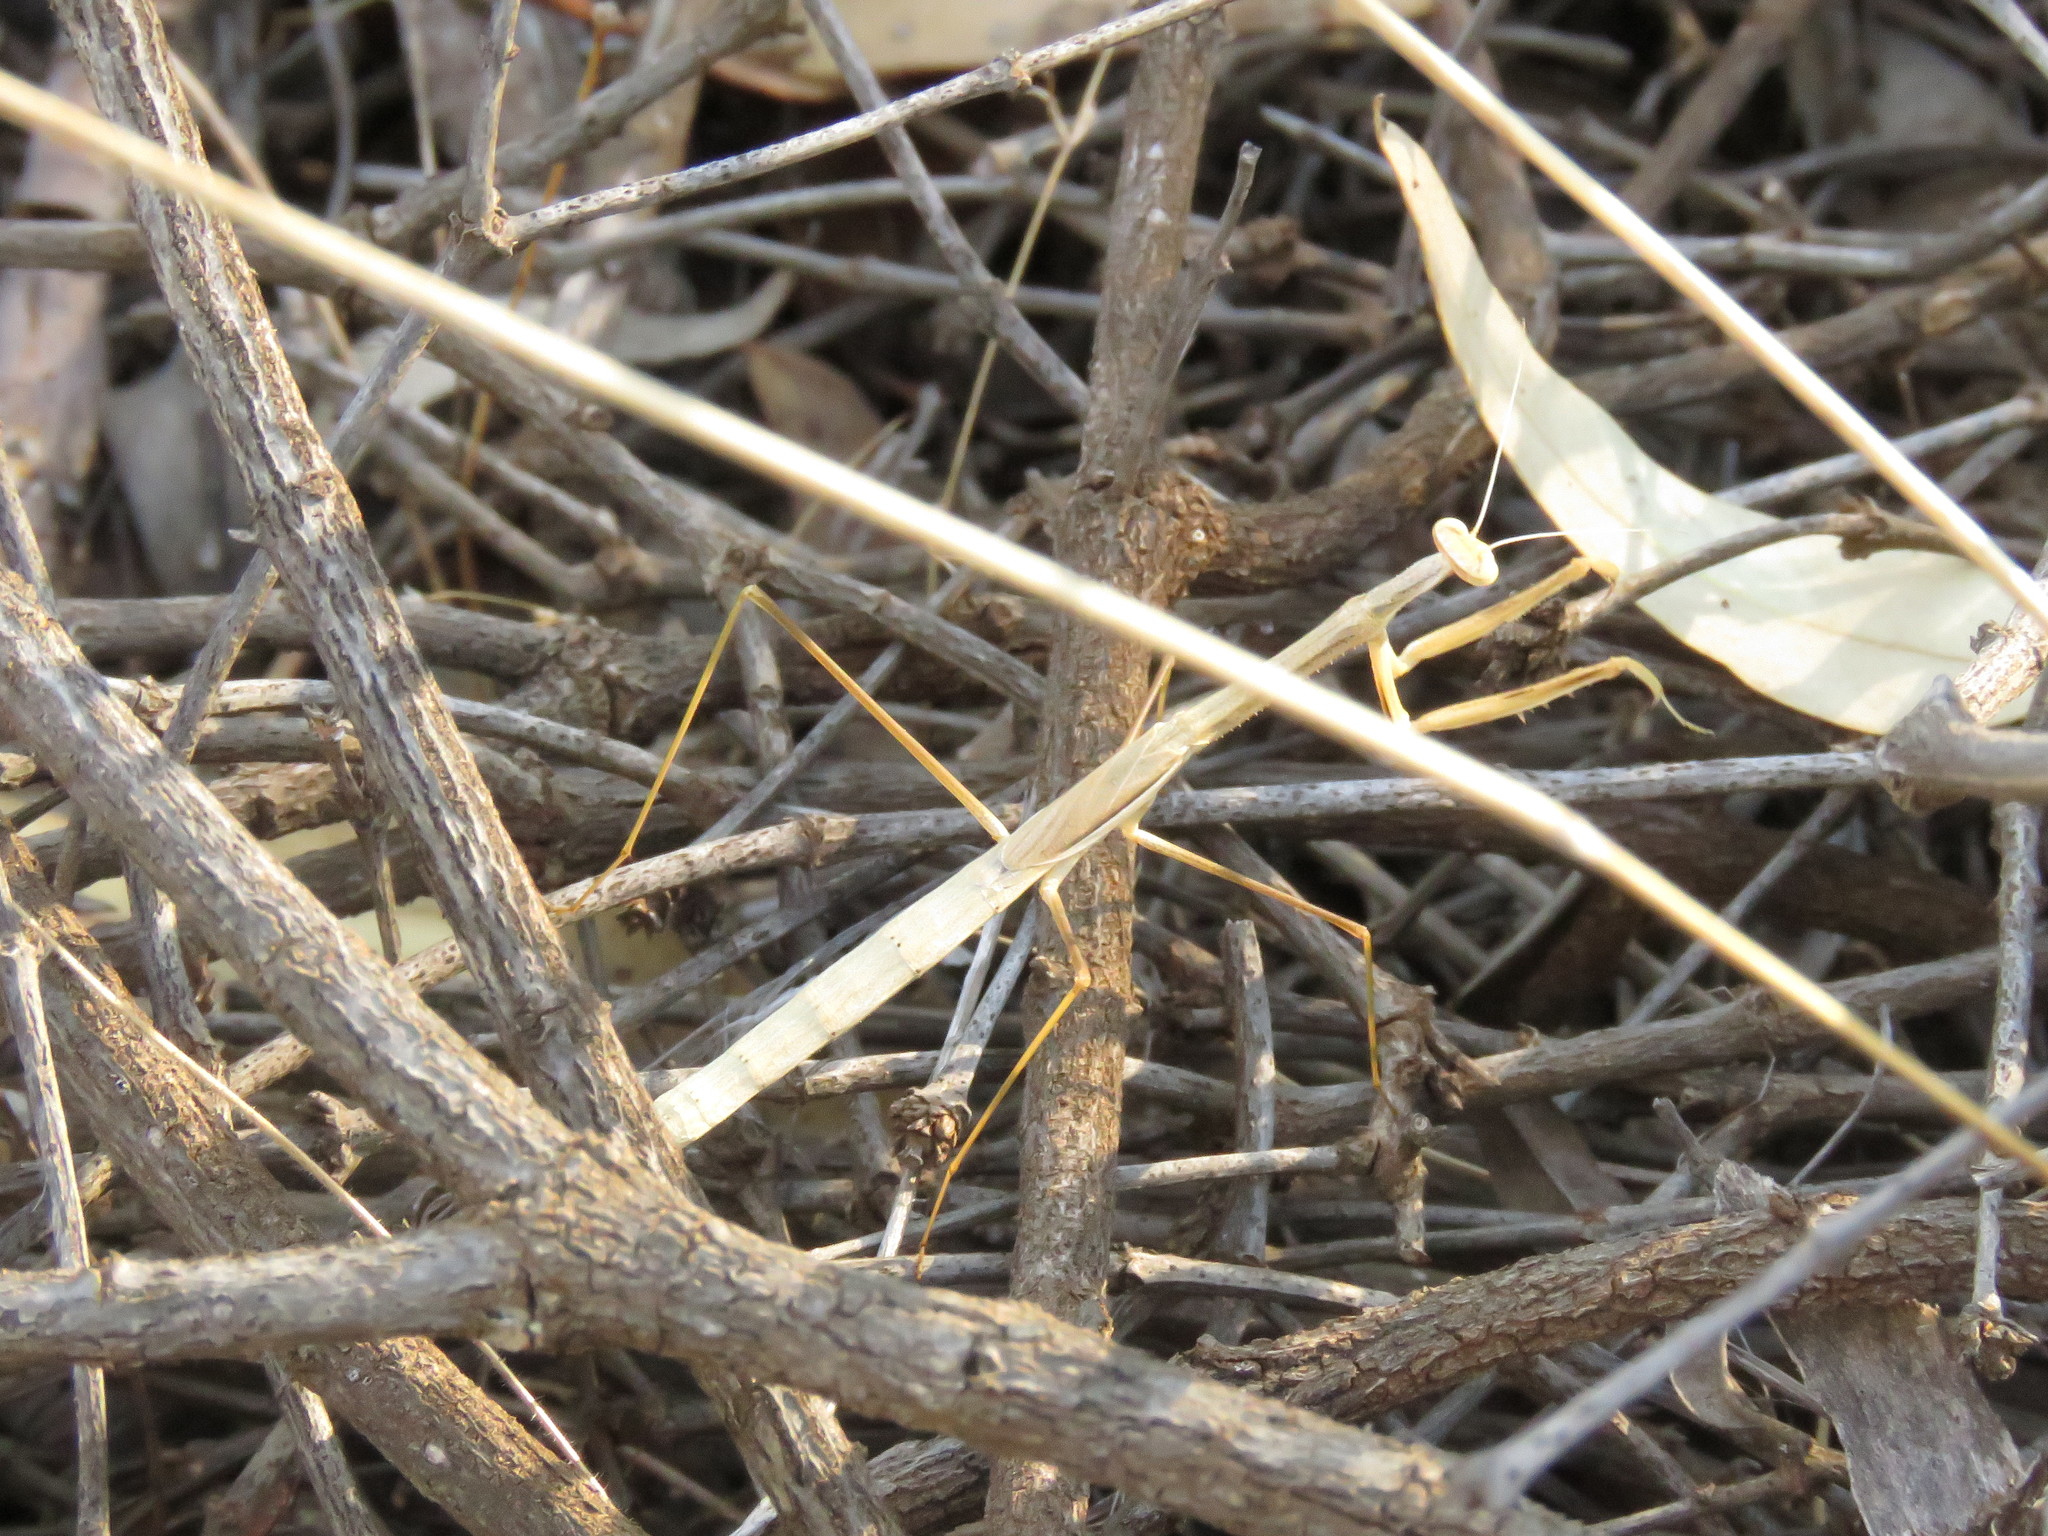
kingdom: Animalia
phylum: Arthropoda
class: Insecta
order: Mantodea
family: Mantidae
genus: Rhodomantis
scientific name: Rhodomantis disparilis
